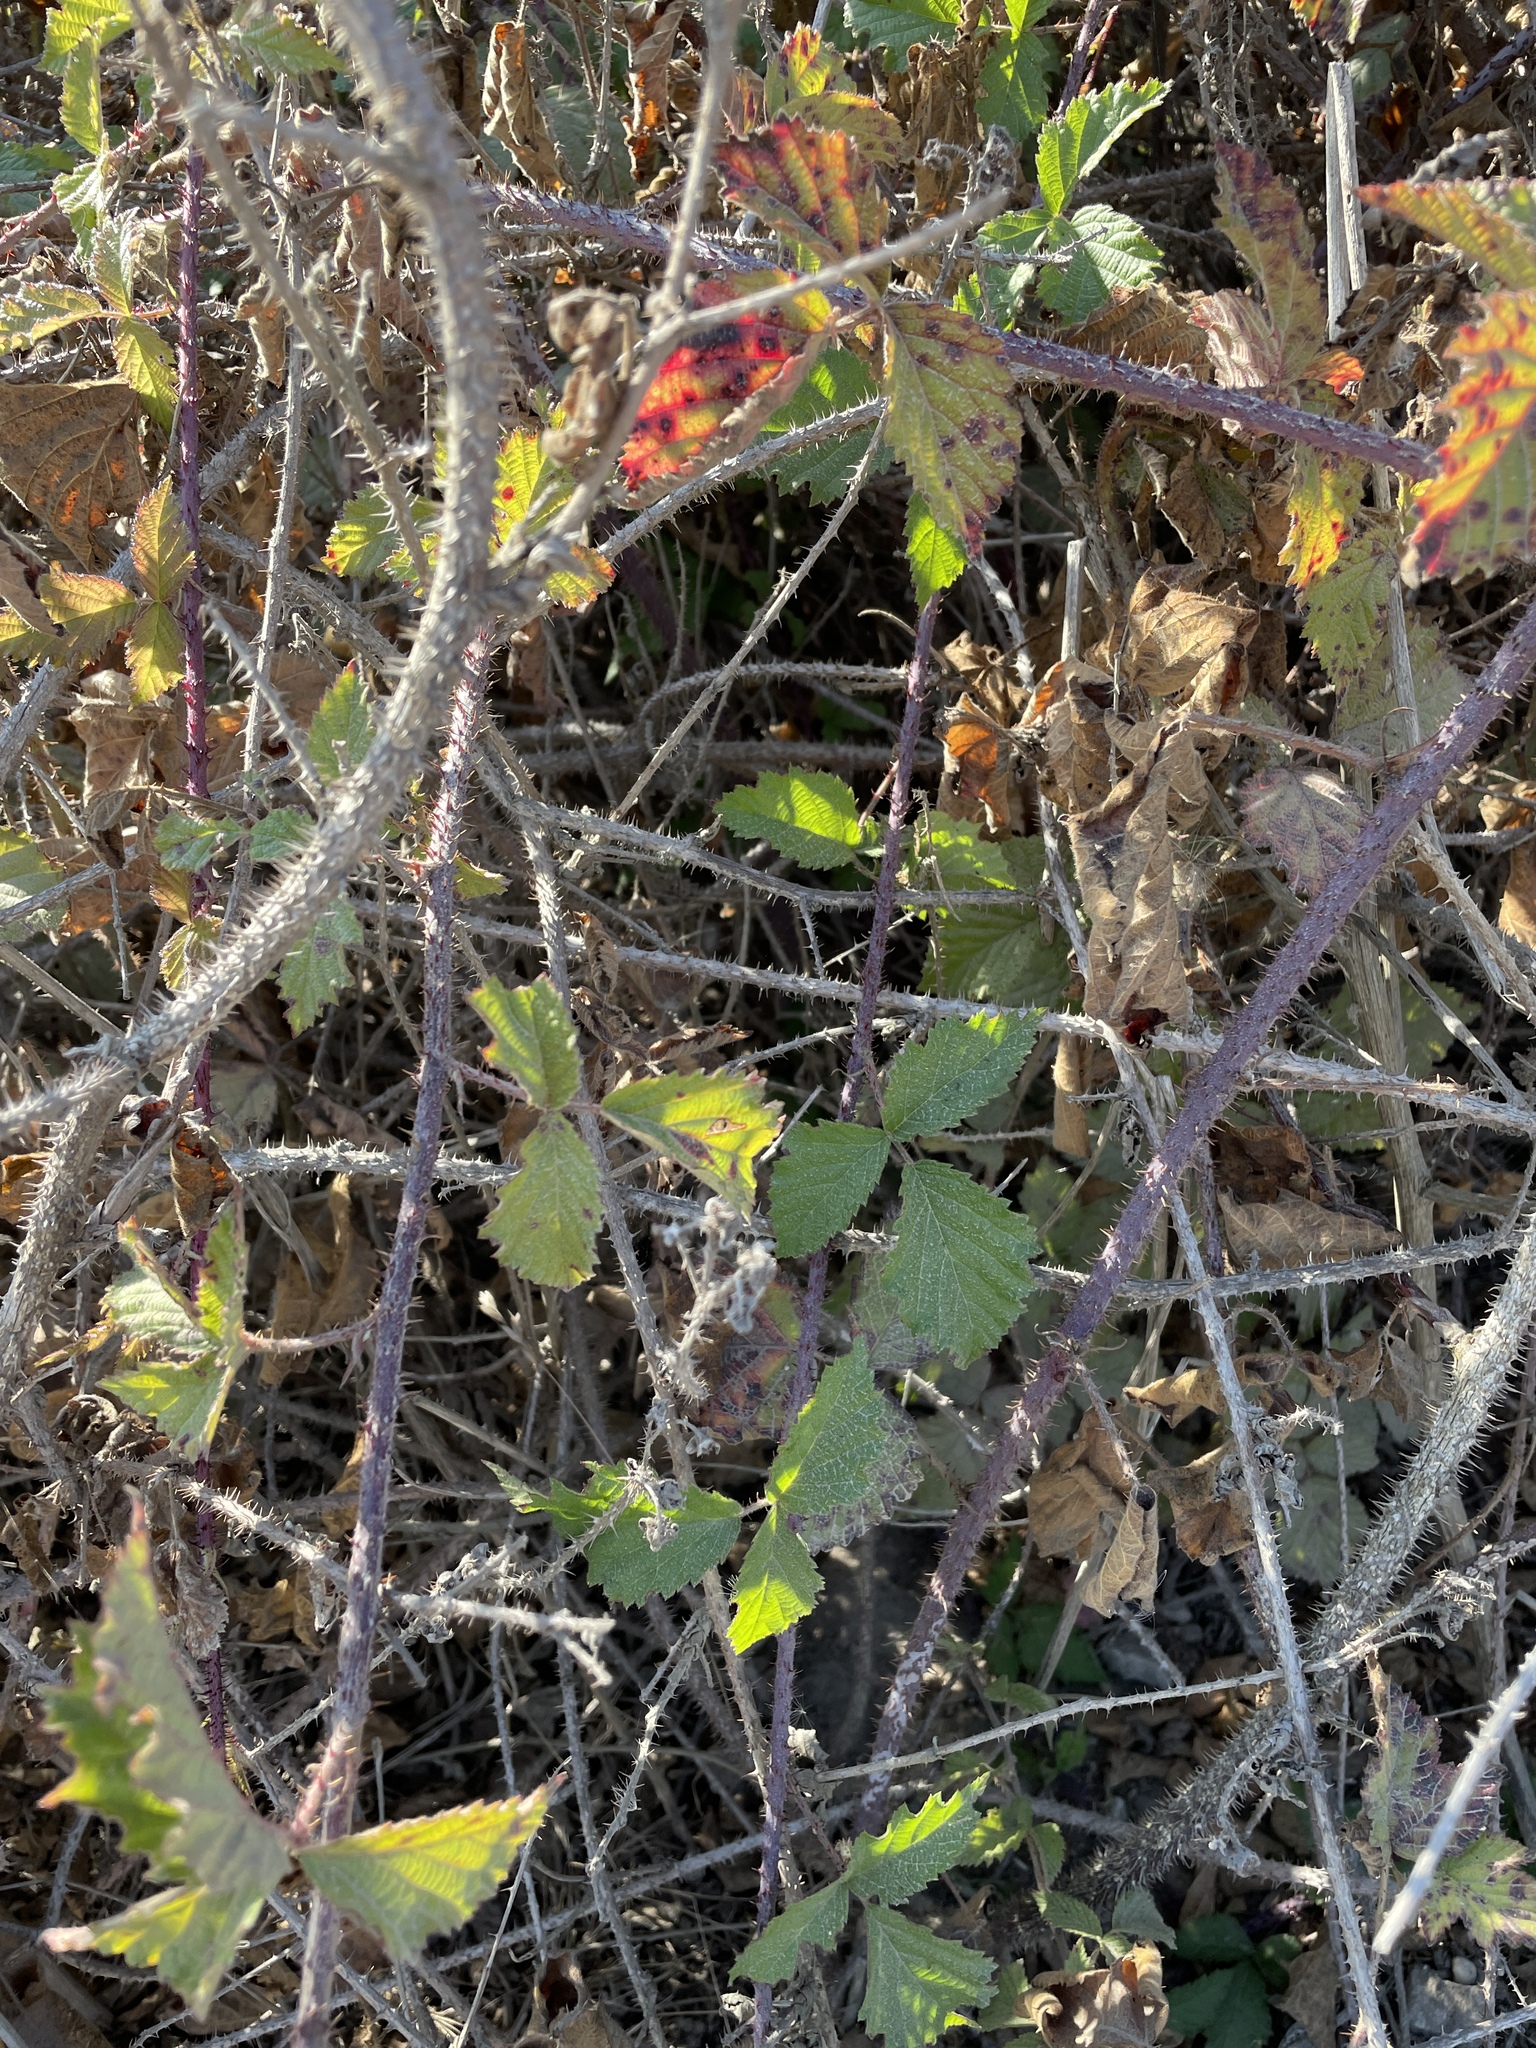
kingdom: Plantae
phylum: Tracheophyta
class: Magnoliopsida
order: Rosales
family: Rosaceae
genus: Rubus
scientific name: Rubus ursinus
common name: Pacific blackberry
